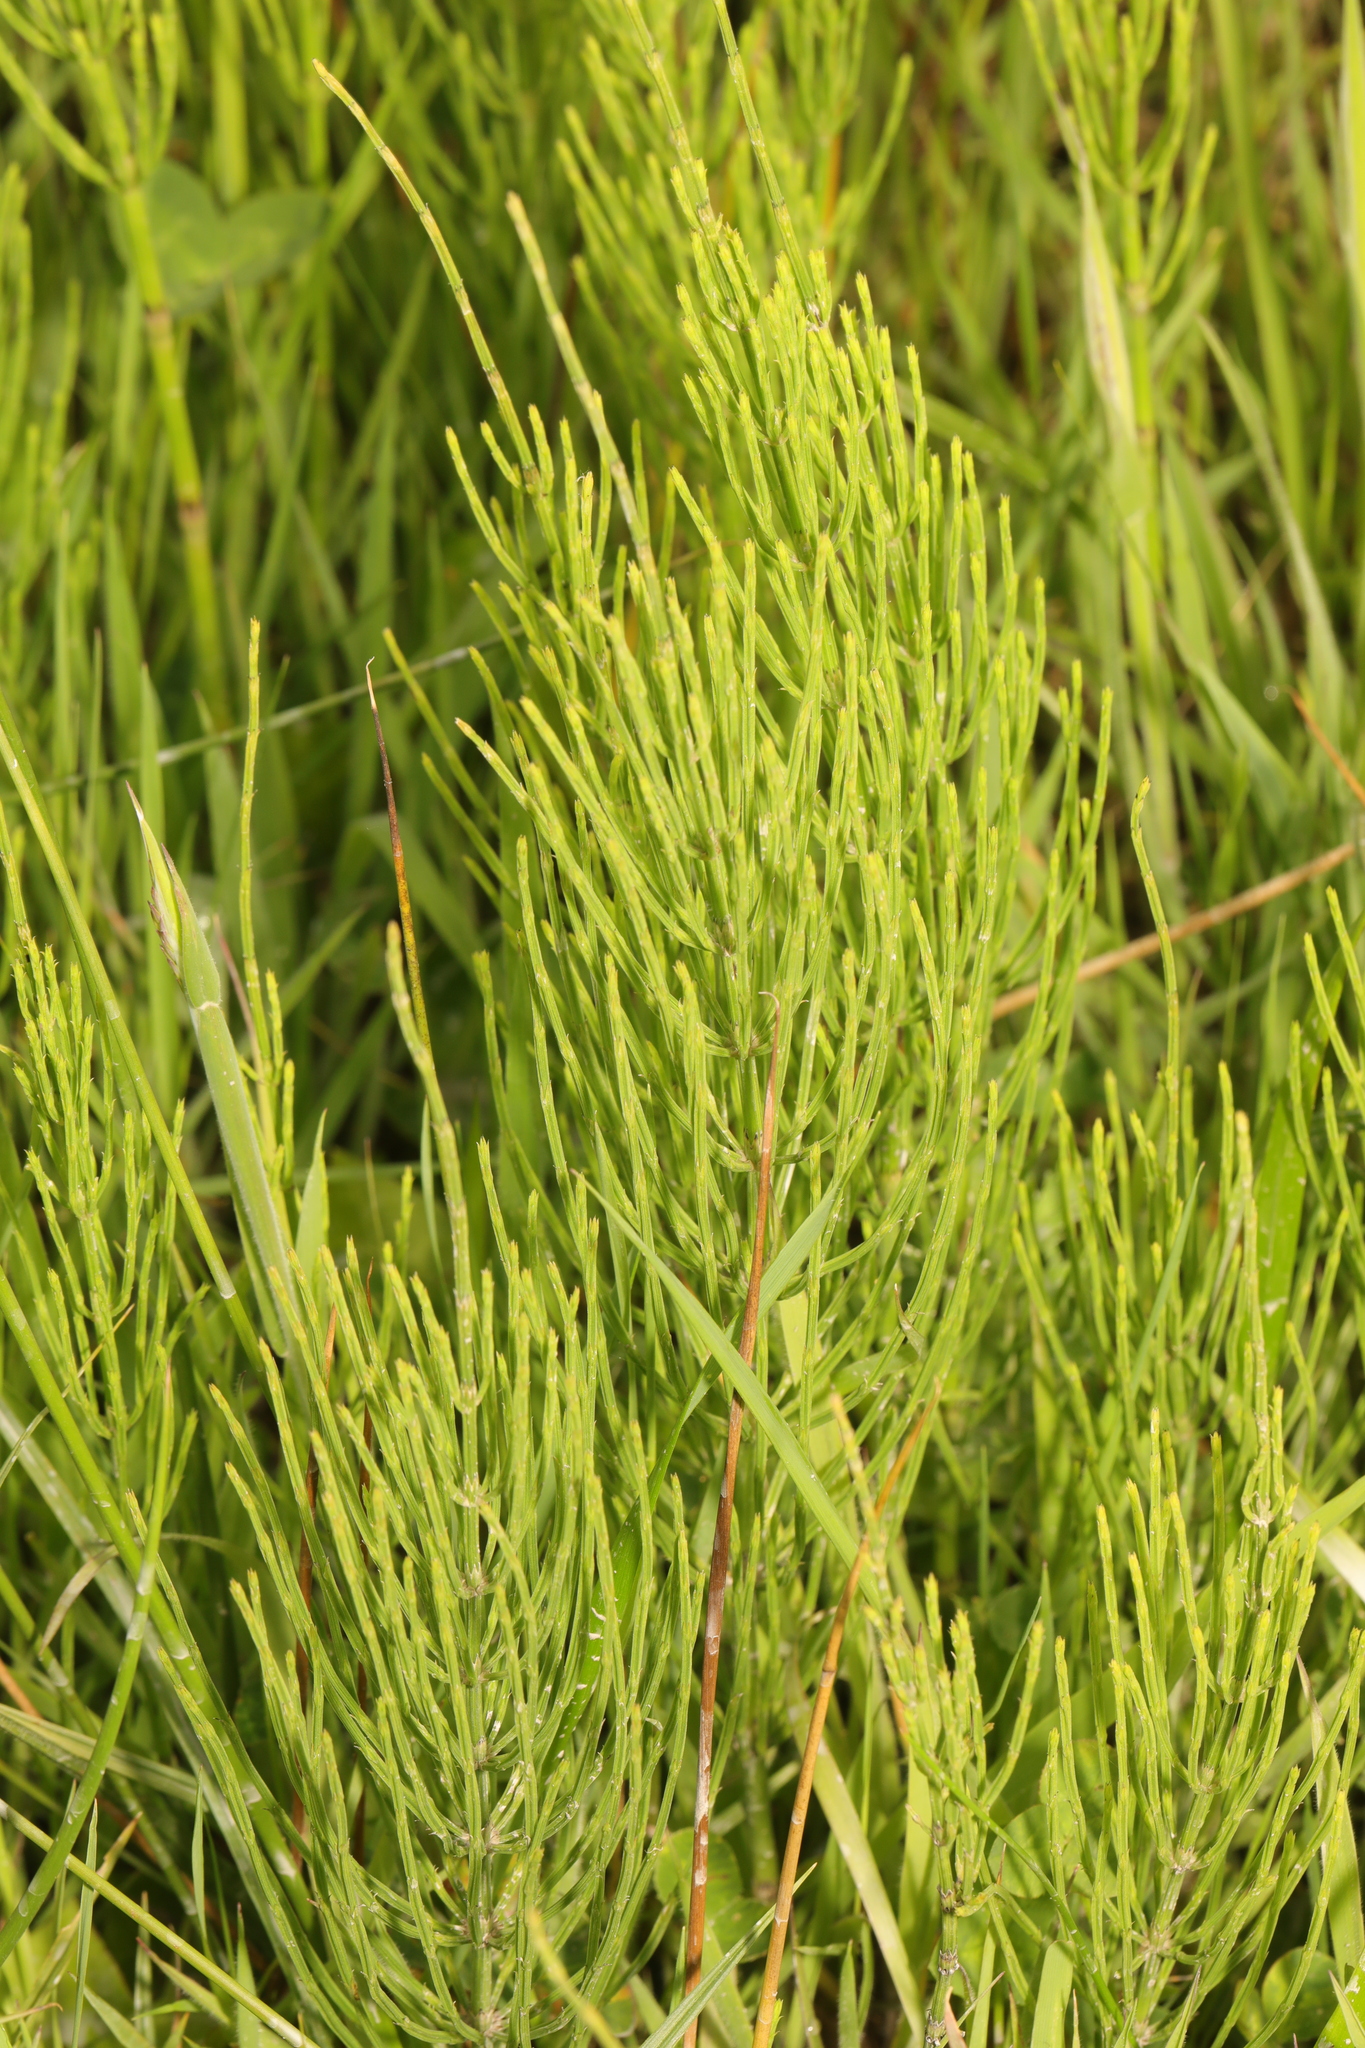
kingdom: Plantae
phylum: Tracheophyta
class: Polypodiopsida
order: Equisetales
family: Equisetaceae
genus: Equisetum
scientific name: Equisetum arvense
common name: Field horsetail
